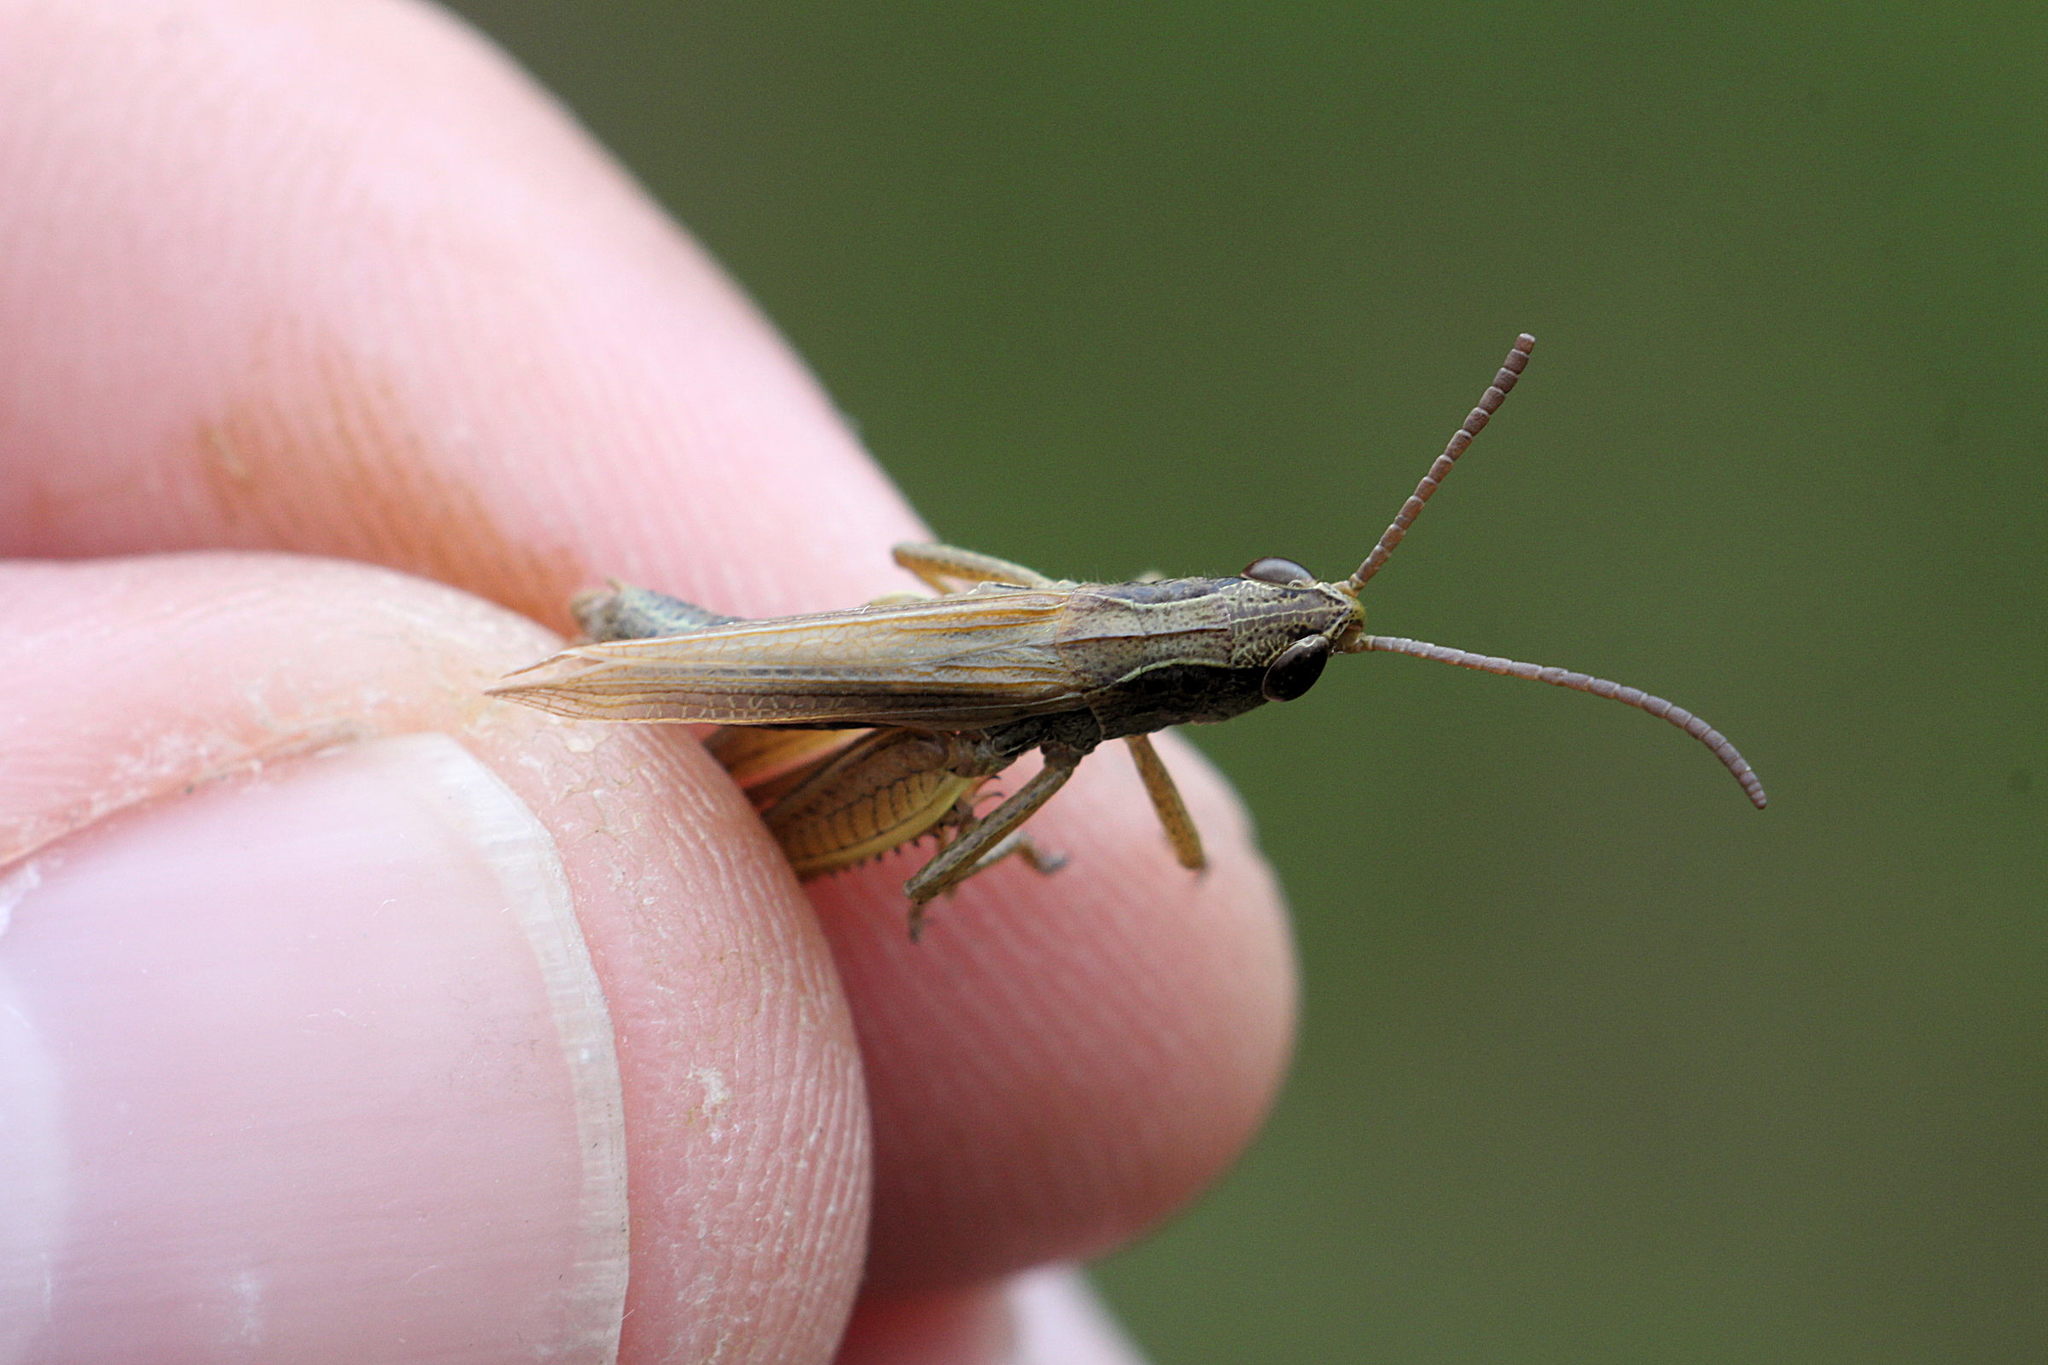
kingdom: Animalia
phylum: Arthropoda
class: Insecta
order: Orthoptera
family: Acrididae
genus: Pseudochorthippus
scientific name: Pseudochorthippus parallelus
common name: Meadow grasshopper
